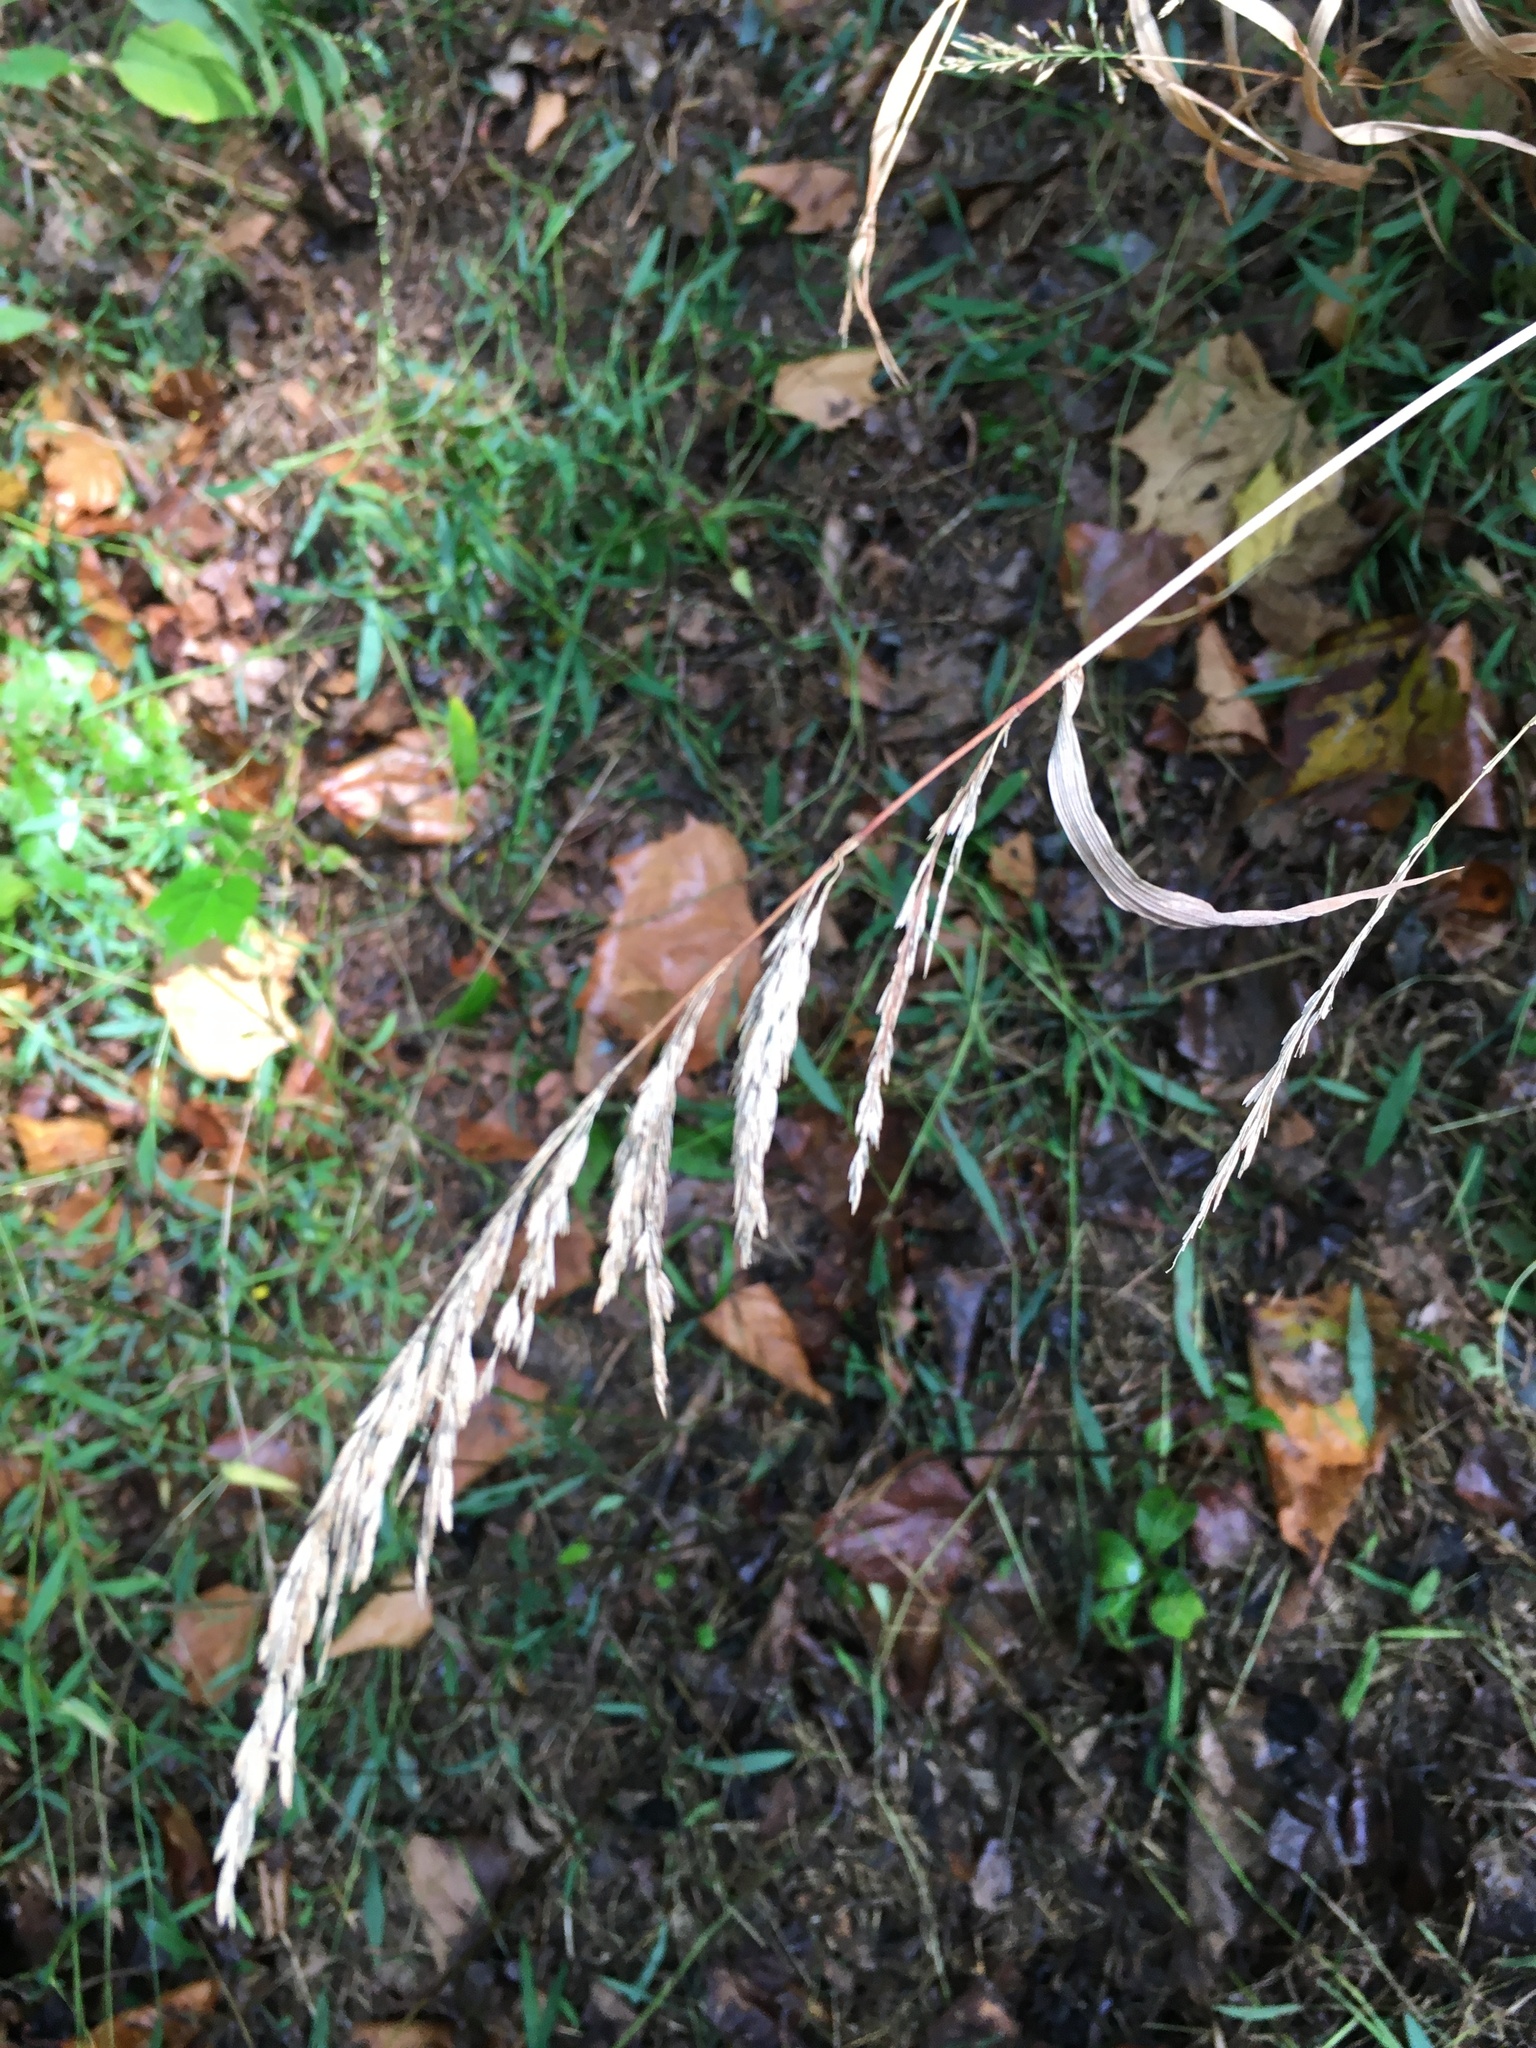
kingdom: Plantae
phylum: Tracheophyta
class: Liliopsida
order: Poales
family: Poaceae
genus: Cinna
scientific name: Cinna arundinacea
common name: Stout woodreed
